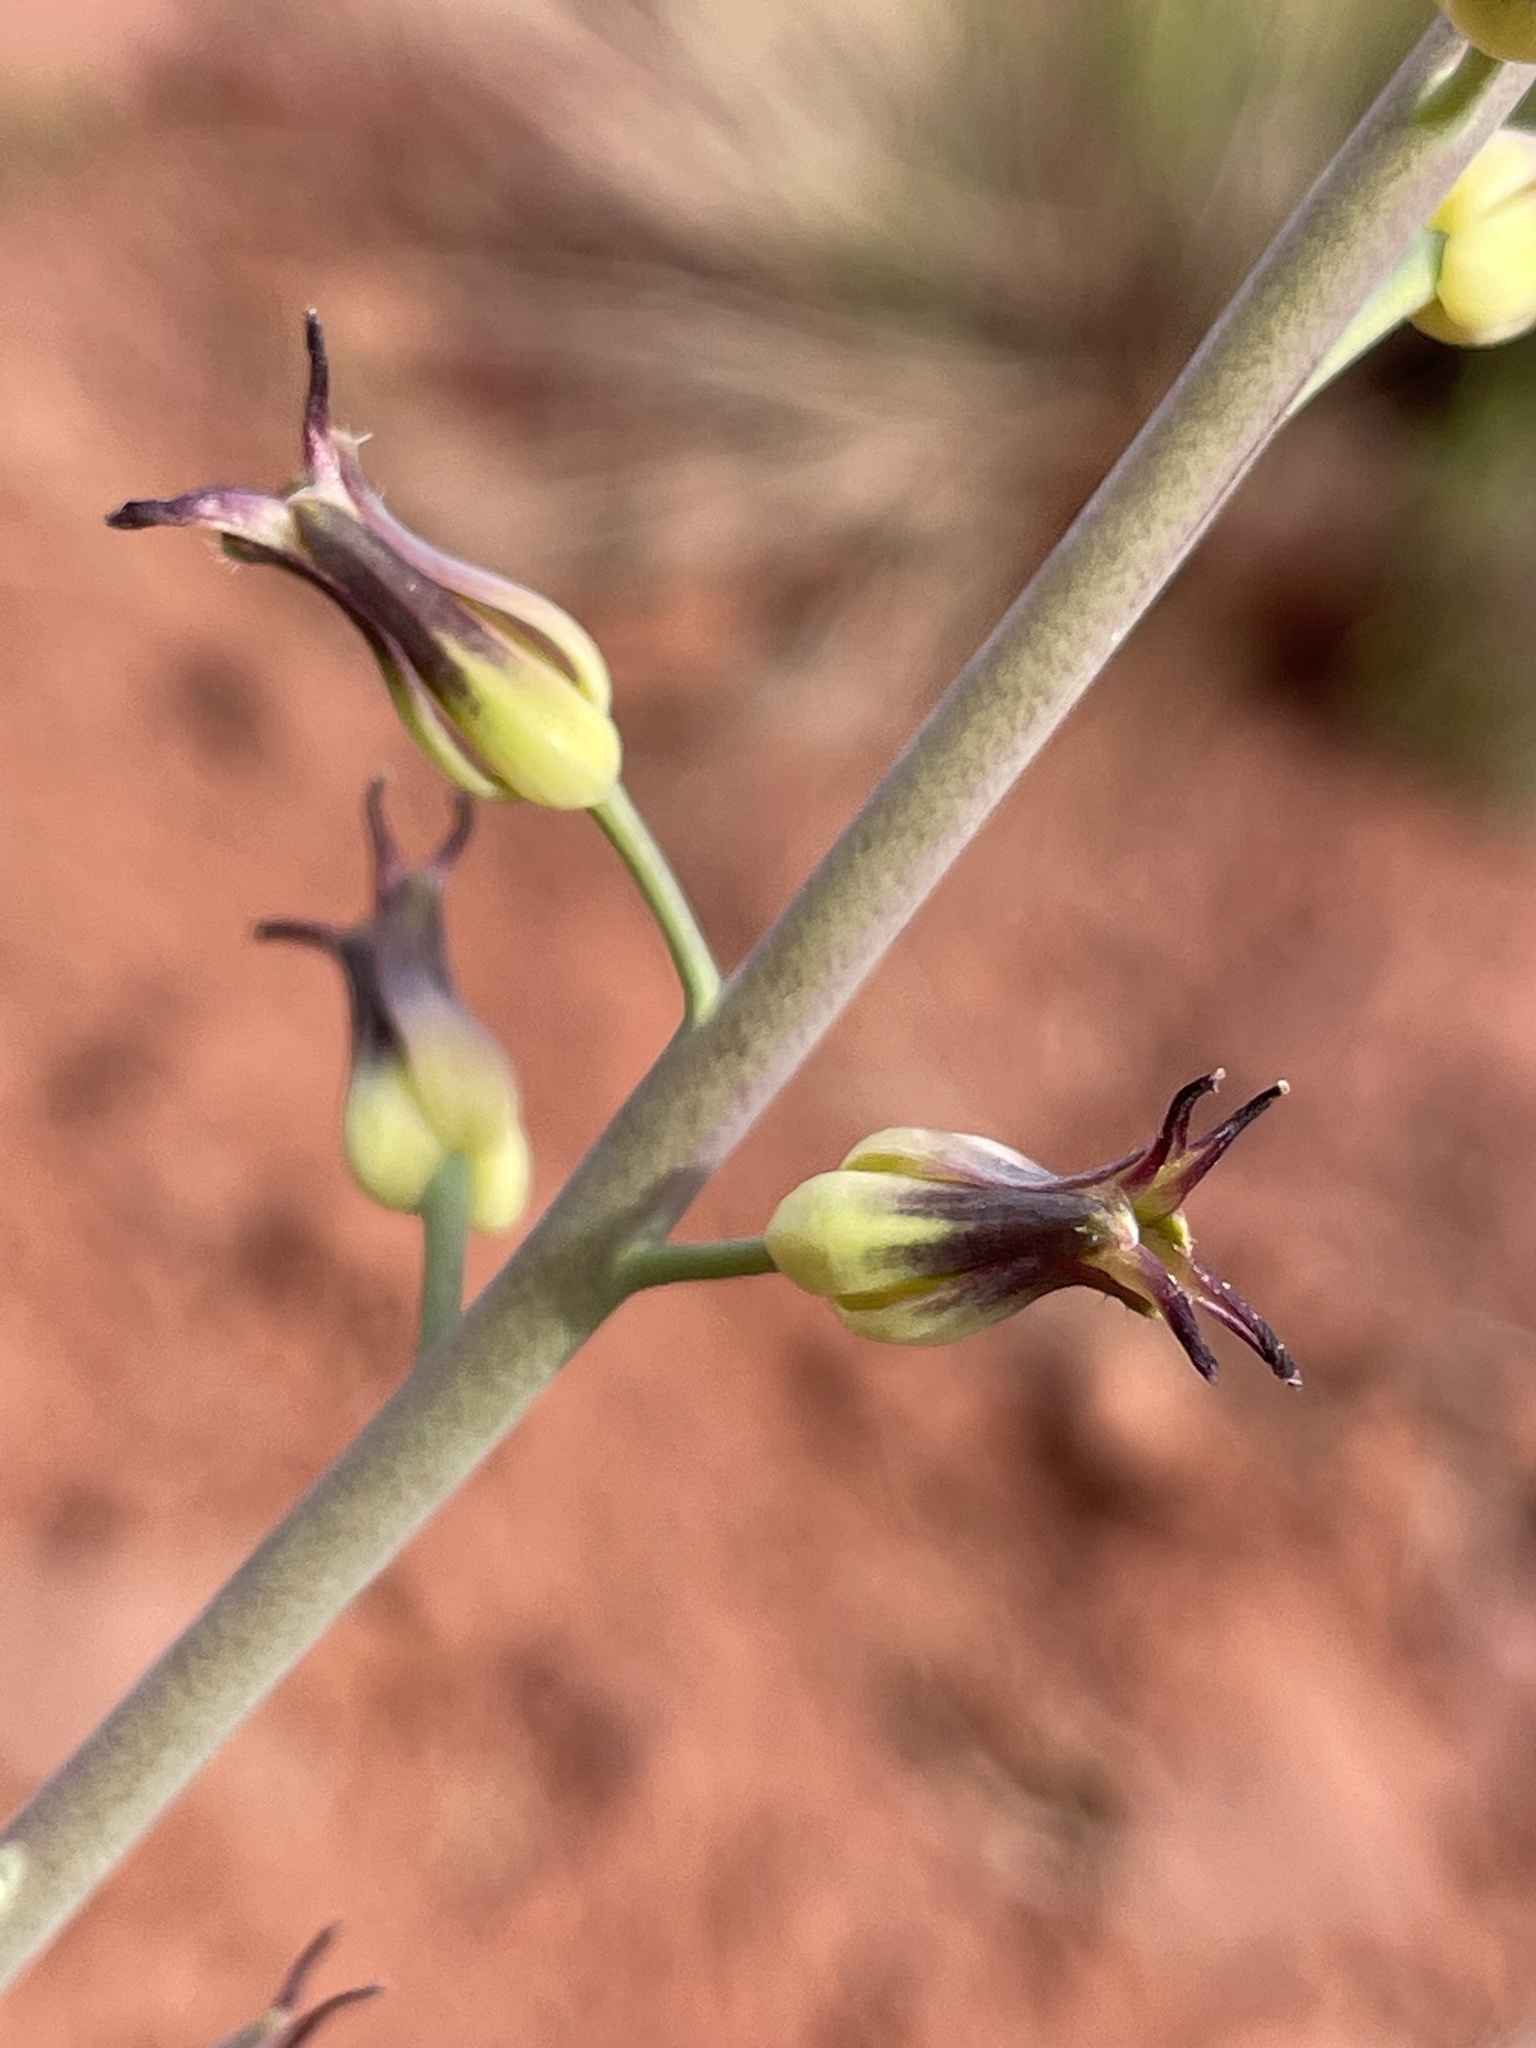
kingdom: Plantae
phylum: Tracheophyta
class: Magnoliopsida
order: Brassicales
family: Brassicaceae
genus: Streptanthus
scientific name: Streptanthus cordatus
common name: Heart-leaf jewel-flower
